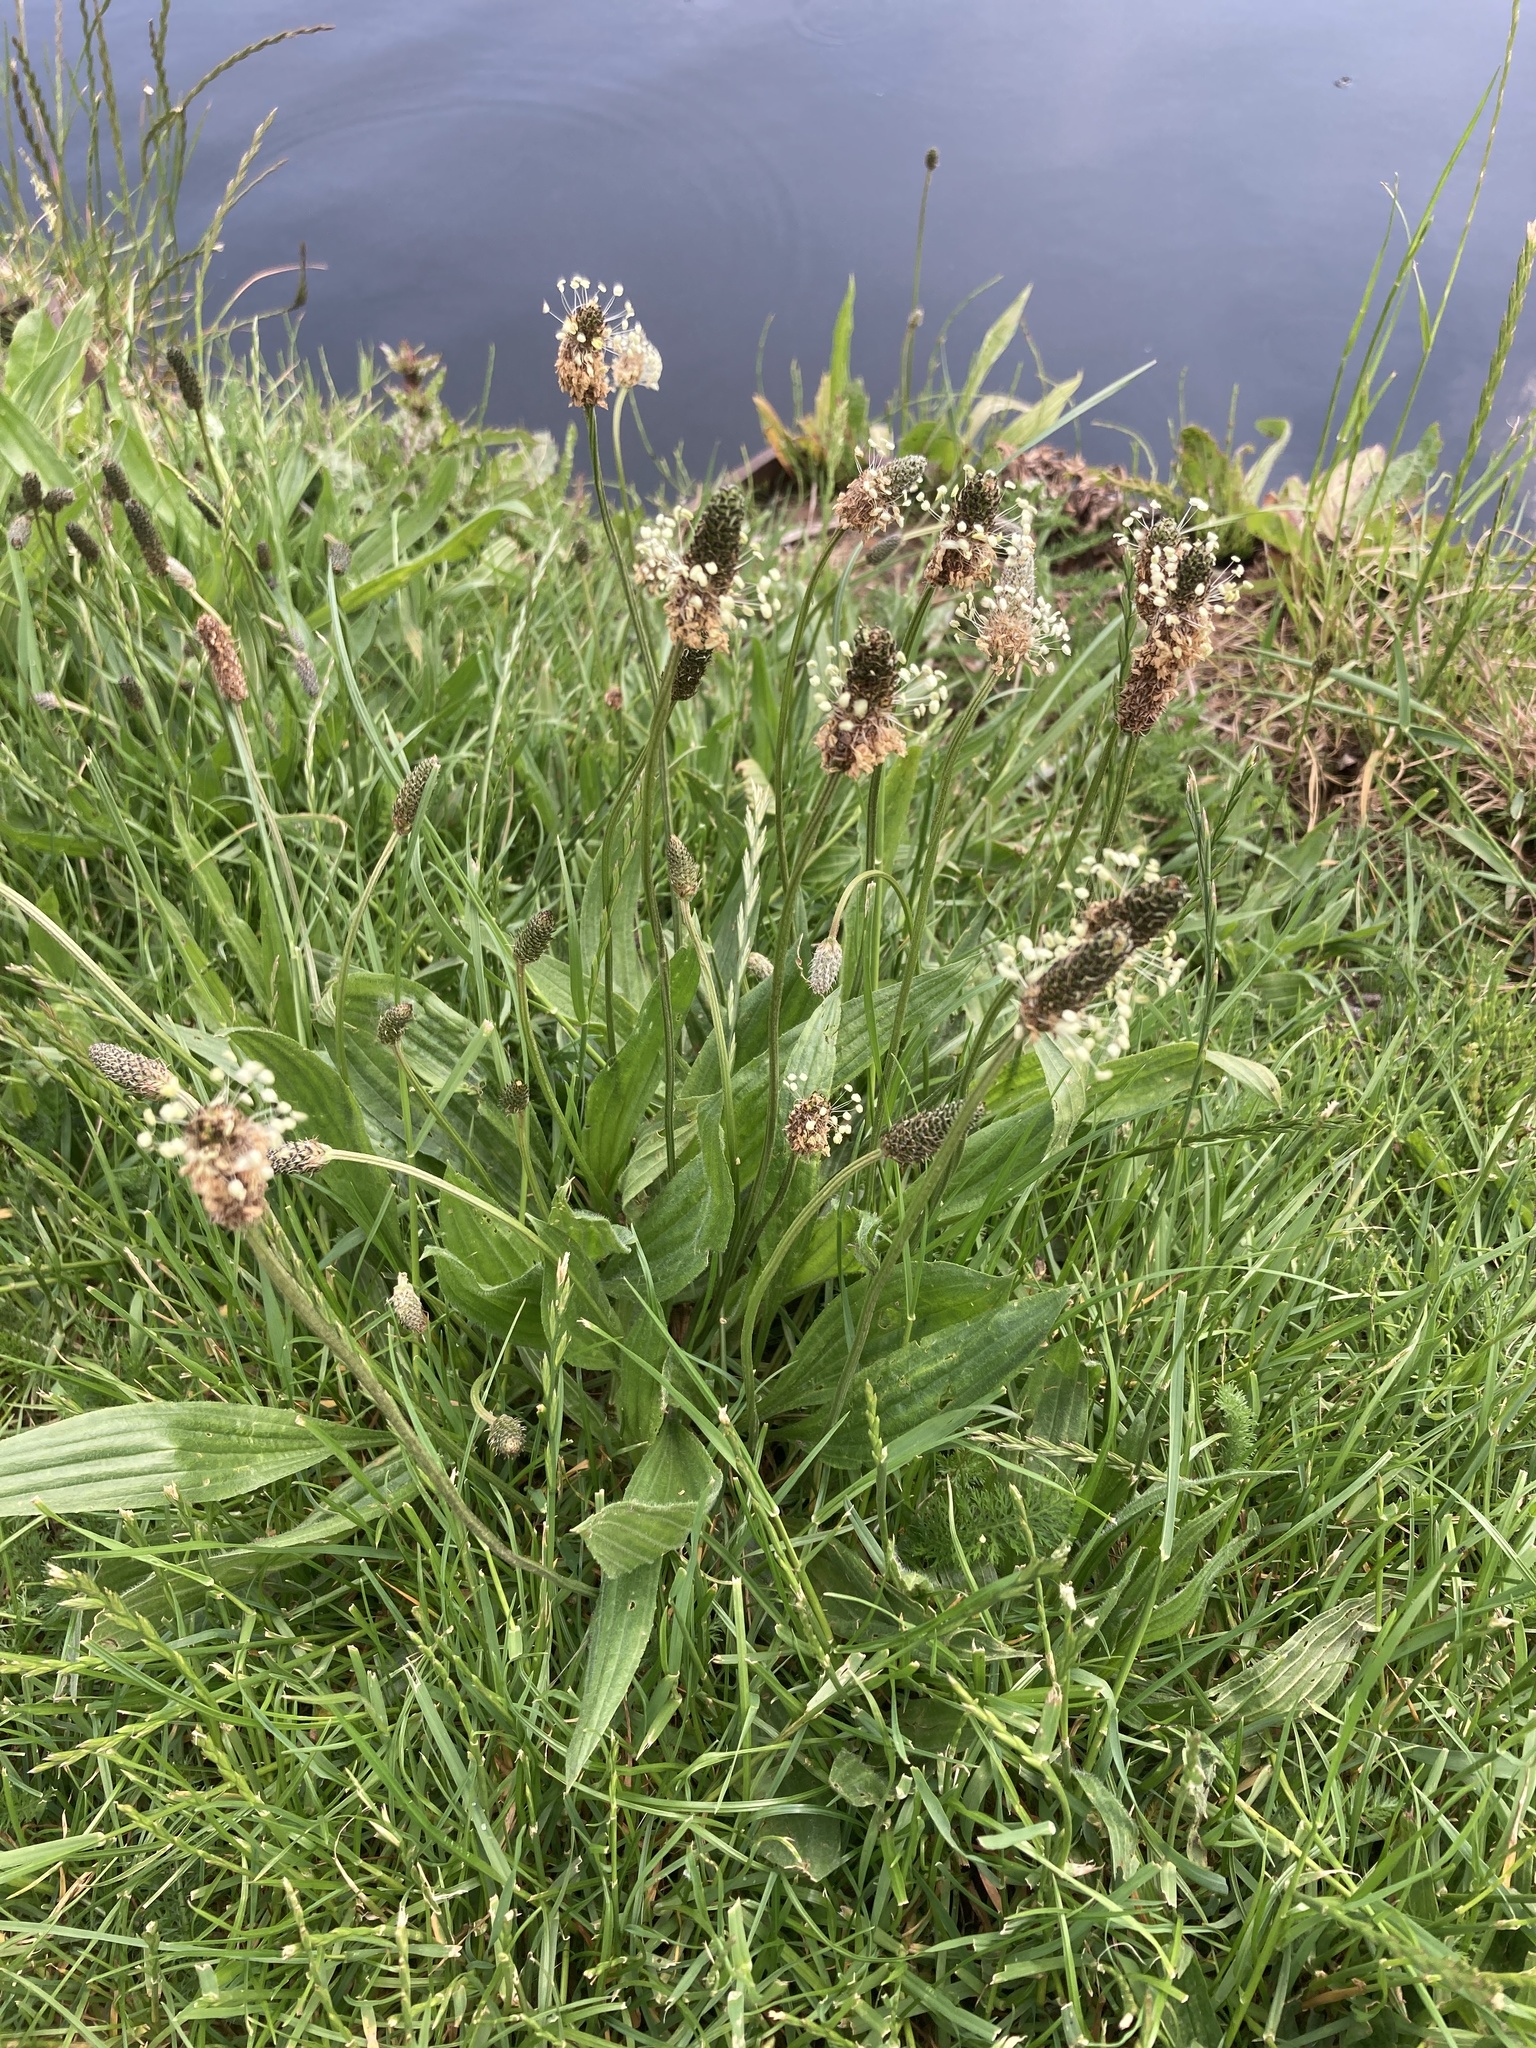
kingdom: Plantae
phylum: Tracheophyta
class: Magnoliopsida
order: Lamiales
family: Plantaginaceae
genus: Plantago
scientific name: Plantago lanceolata
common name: Ribwort plantain
